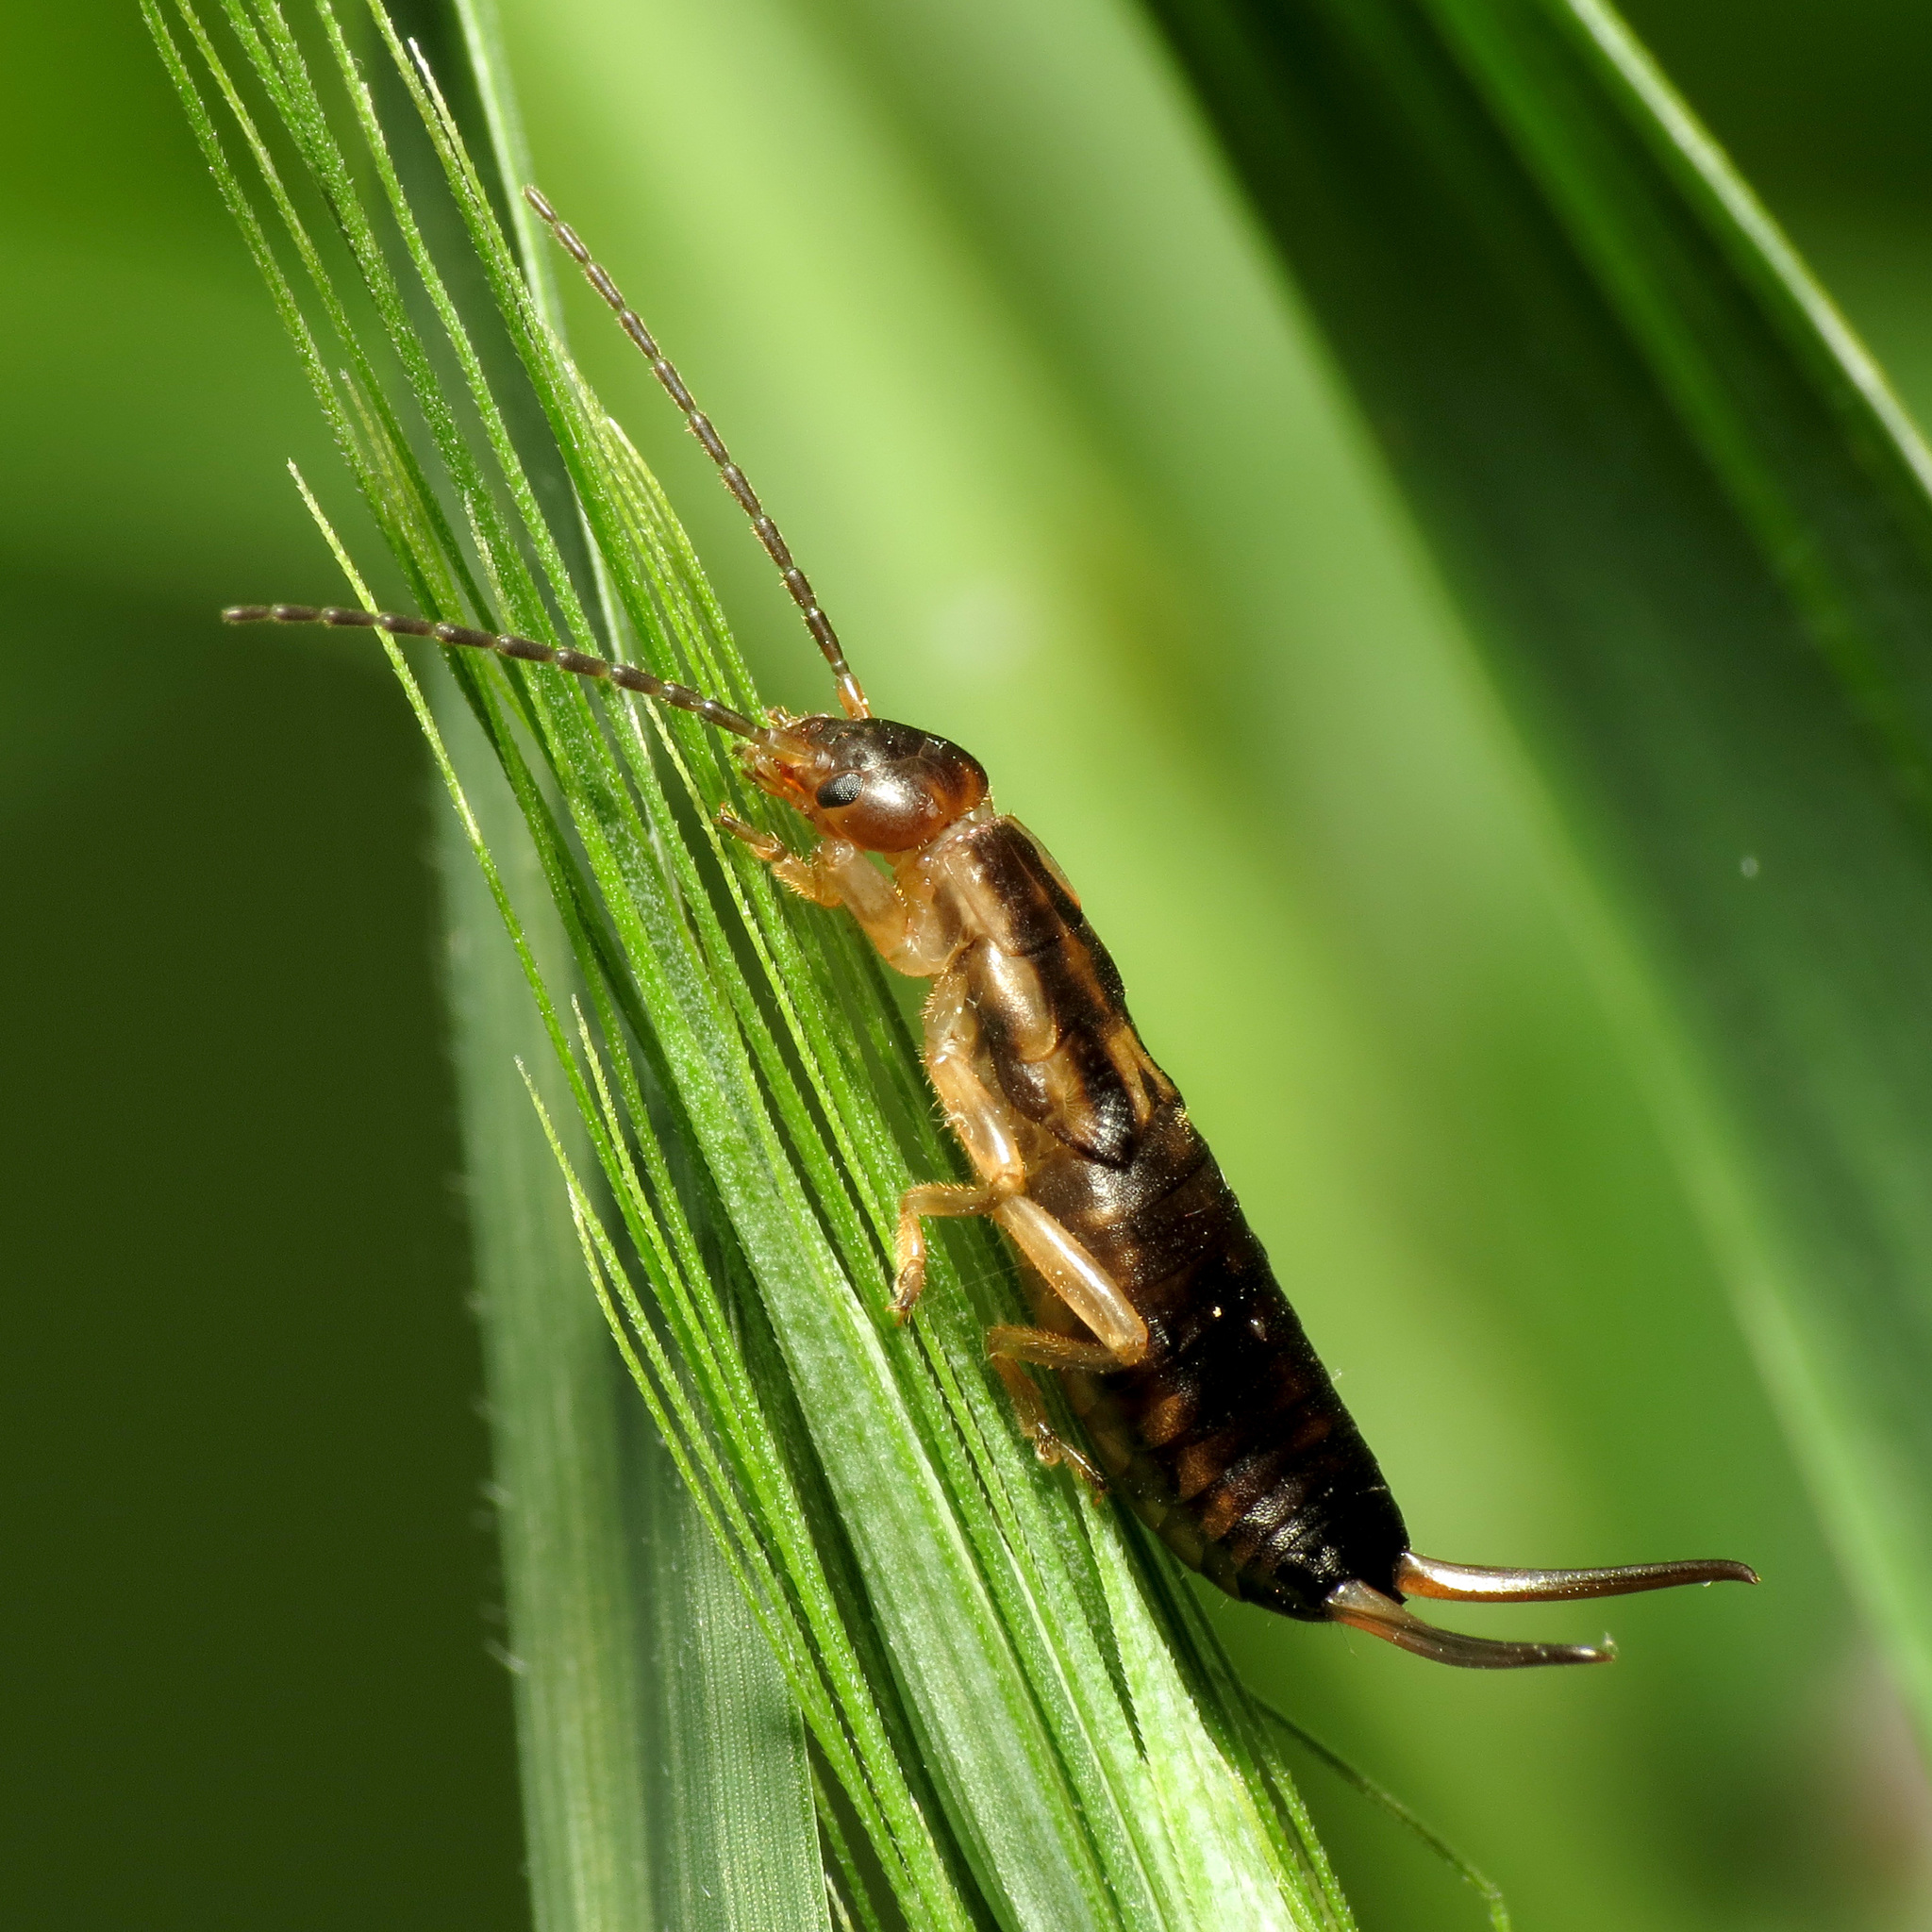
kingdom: Animalia
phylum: Arthropoda
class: Insecta
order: Dermaptera
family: Forficulidae
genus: Forficula
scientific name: Forficula
